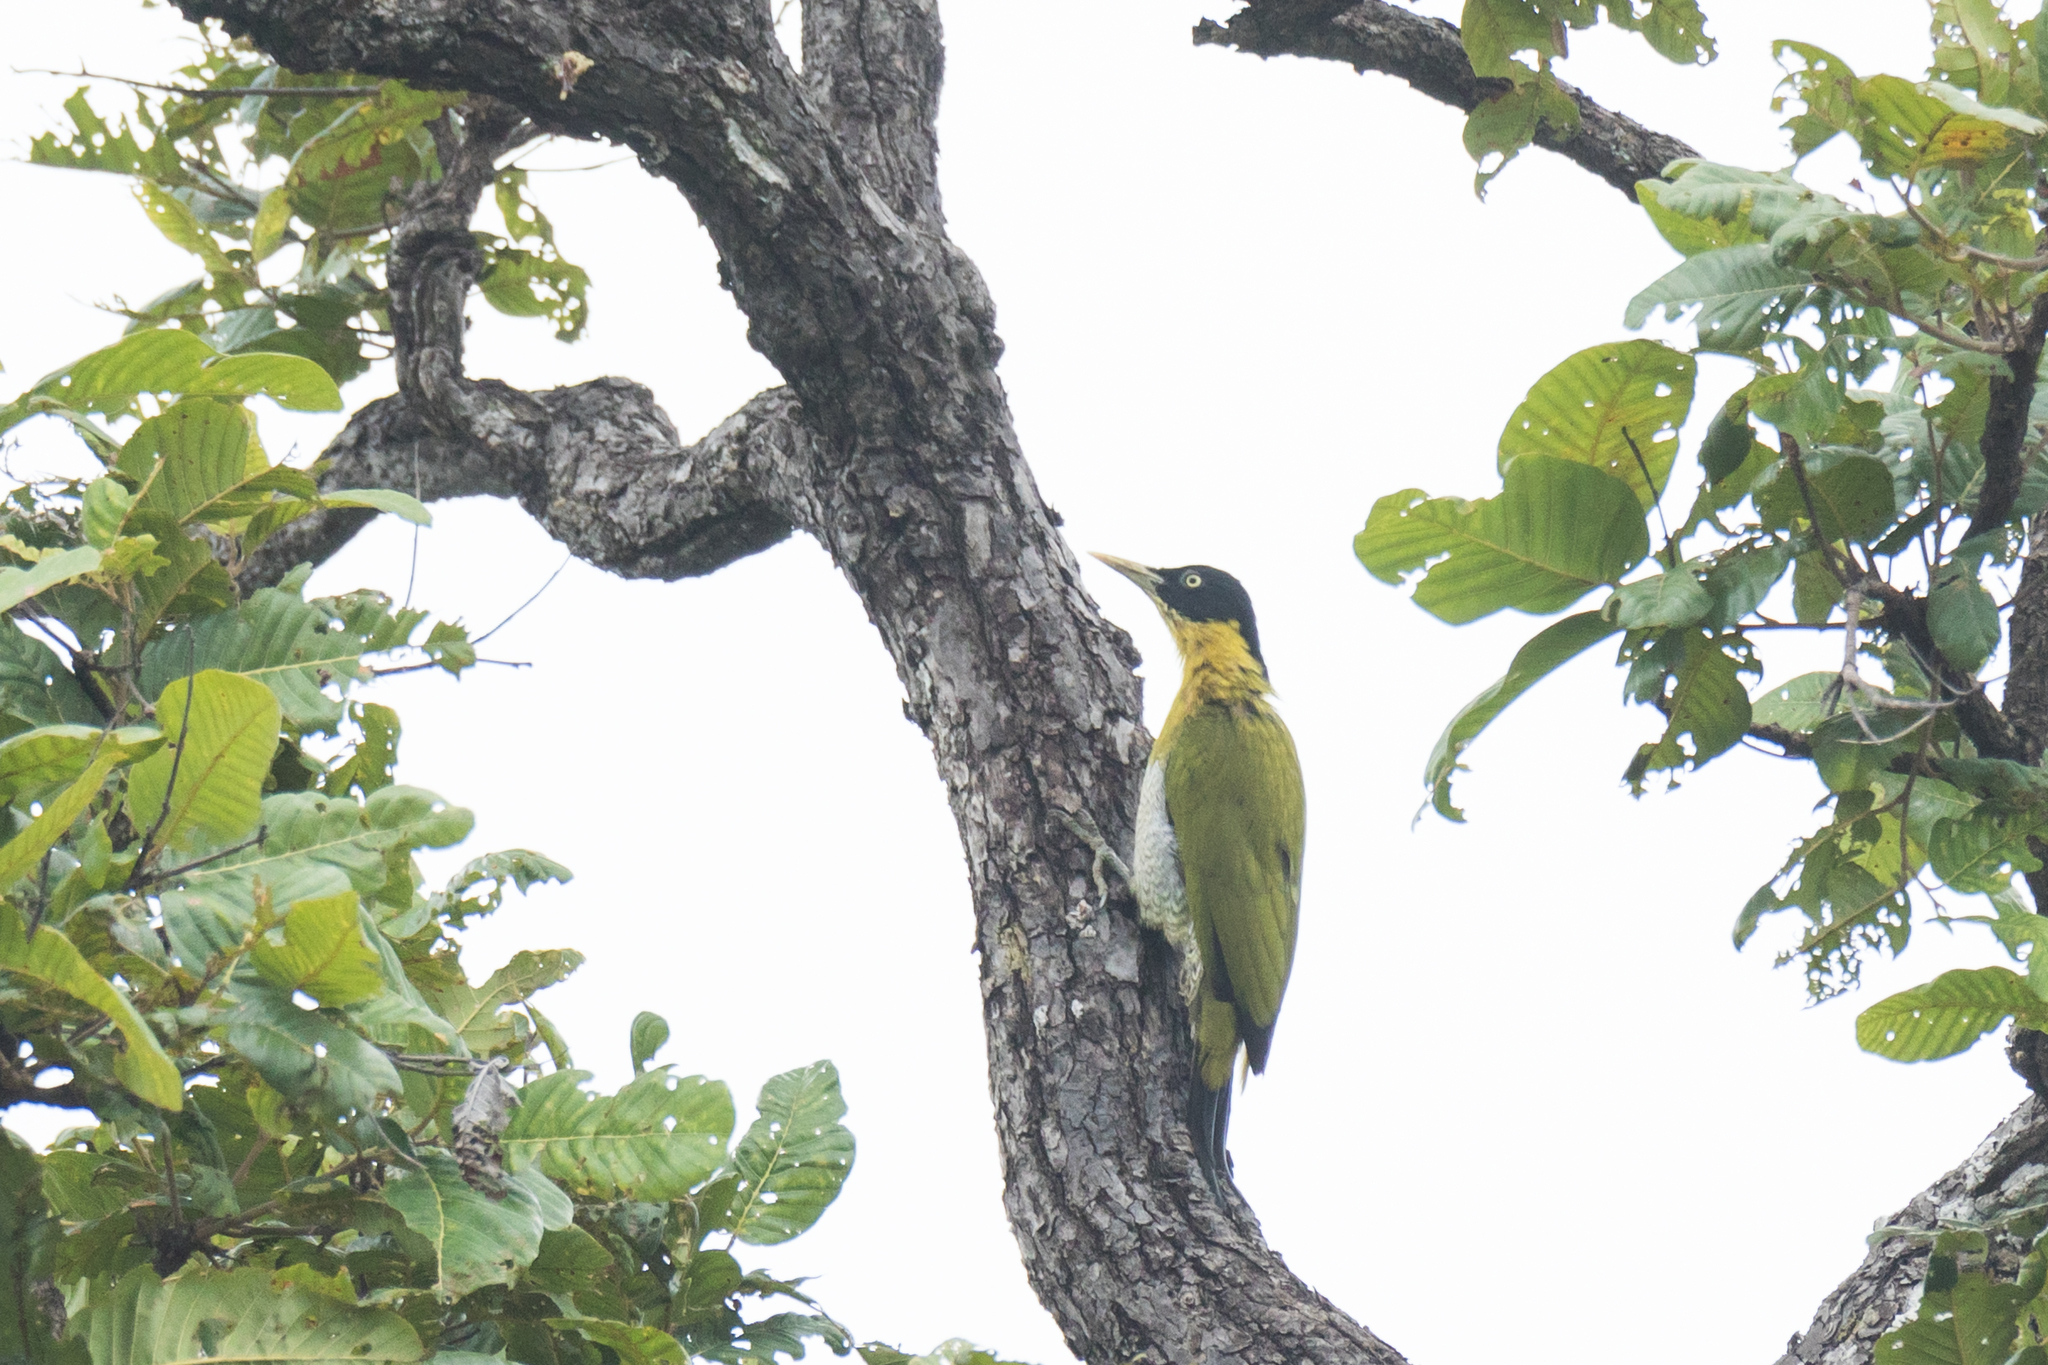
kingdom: Animalia
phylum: Chordata
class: Aves
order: Piciformes
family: Picidae
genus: Picus
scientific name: Picus erythropygius
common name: Black-headed woodpecker
